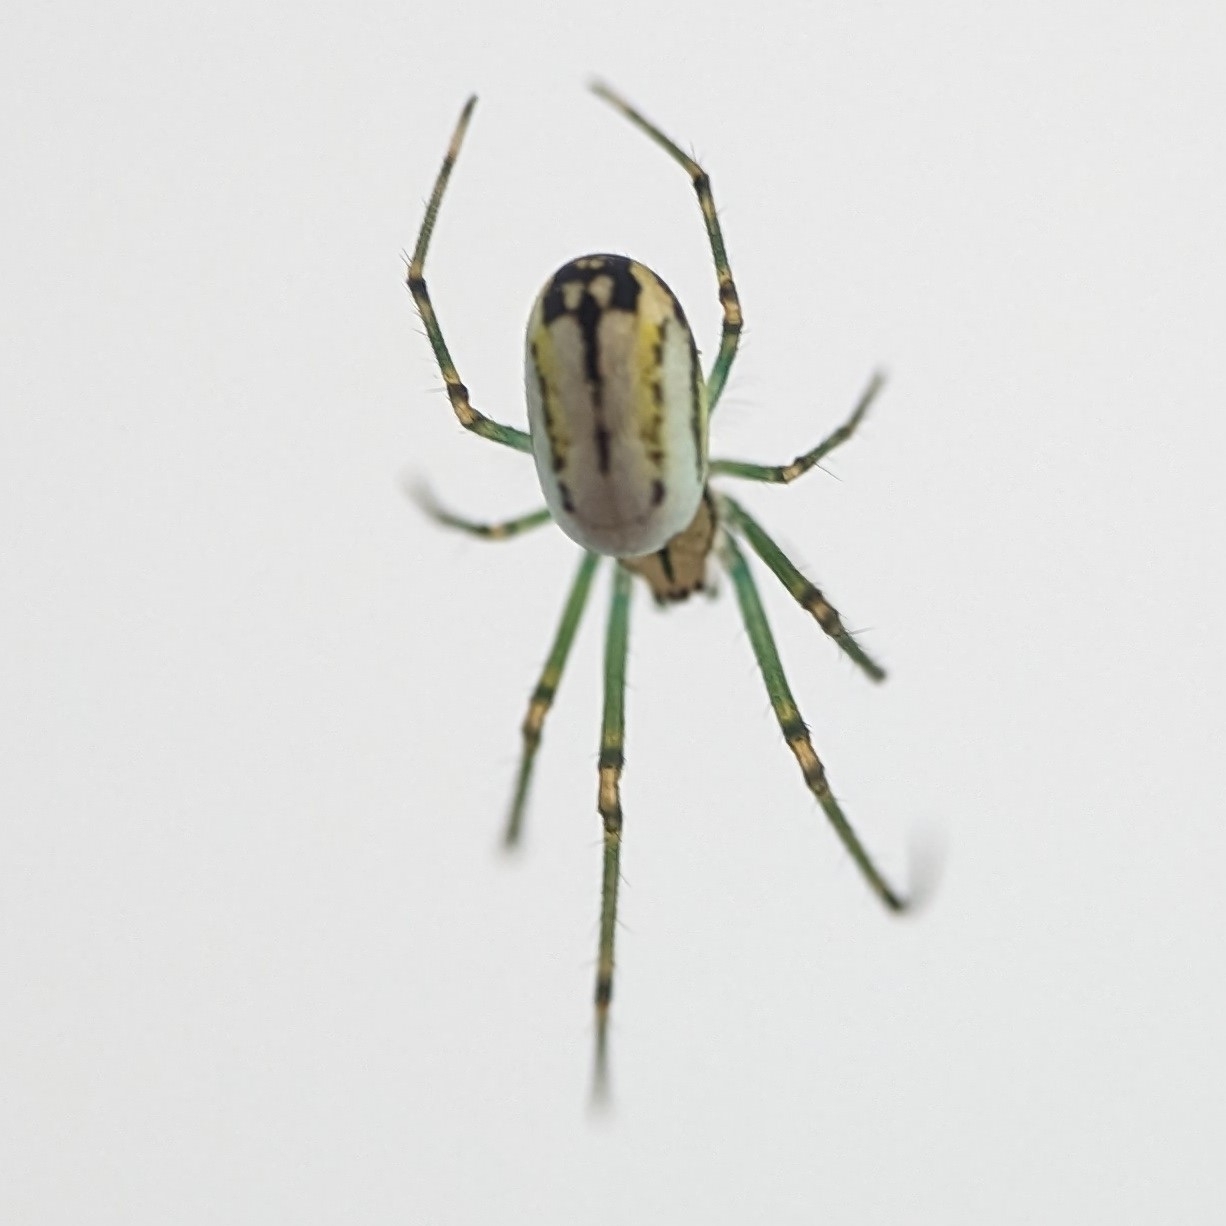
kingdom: Animalia
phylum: Arthropoda
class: Arachnida
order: Araneae
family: Tetragnathidae
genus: Leucauge
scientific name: Leucauge venusta
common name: Longjawed orb weavers
